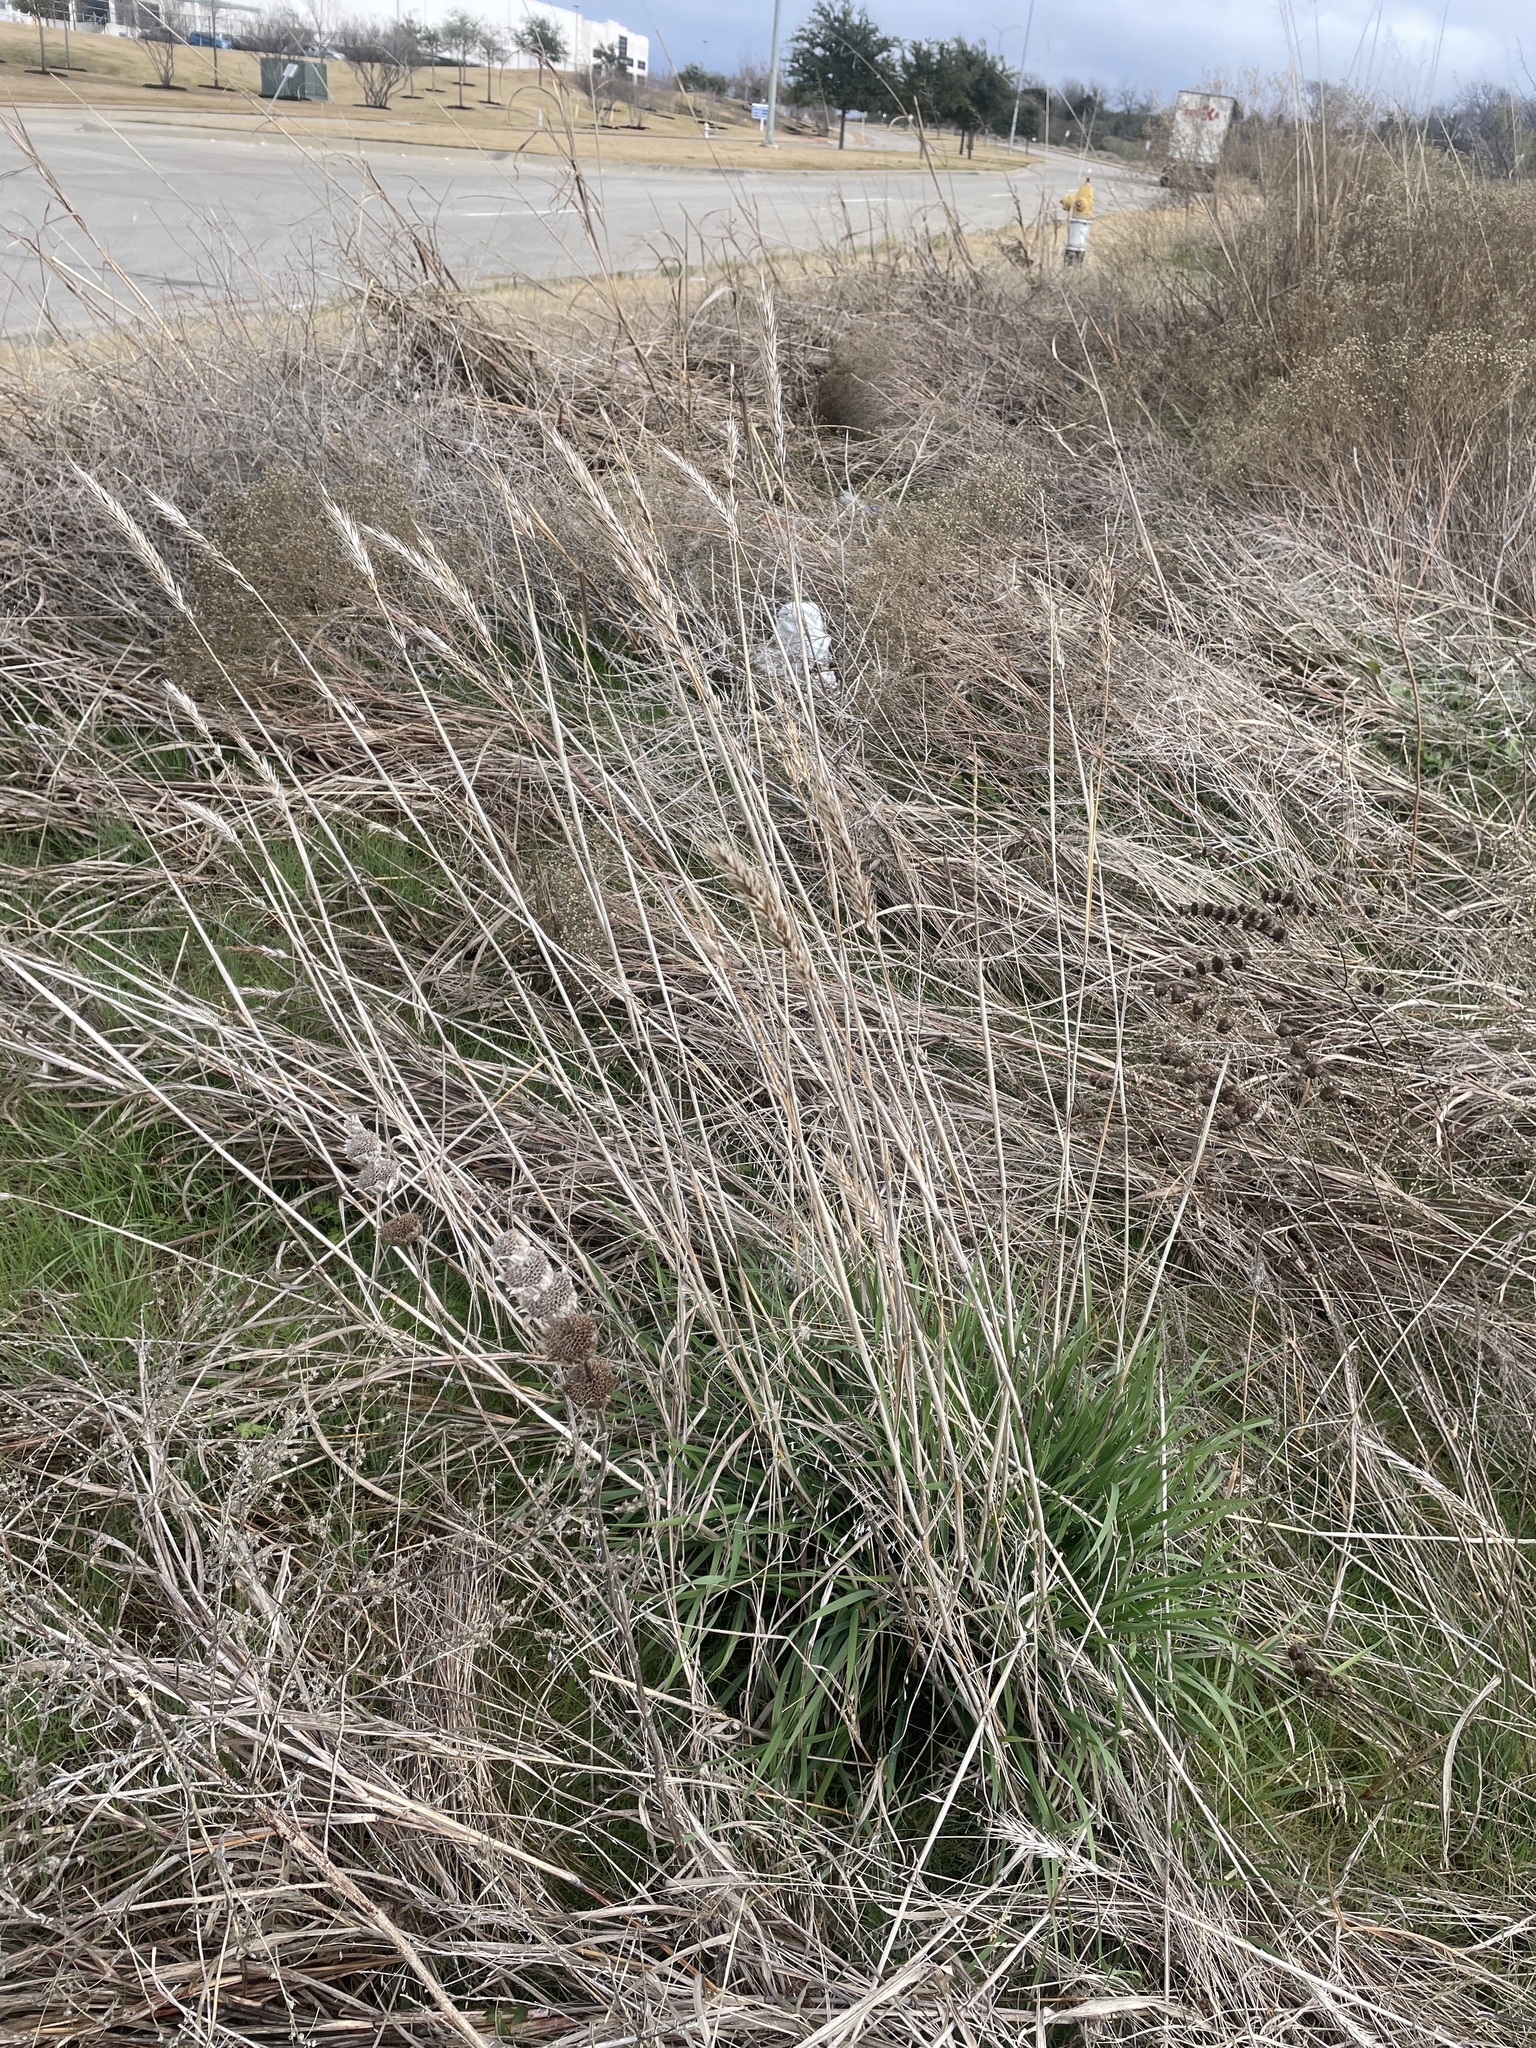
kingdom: Plantae
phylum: Tracheophyta
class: Liliopsida
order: Poales
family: Poaceae
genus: Elymus
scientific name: Elymus virginicus
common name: Common eastern wildrye
